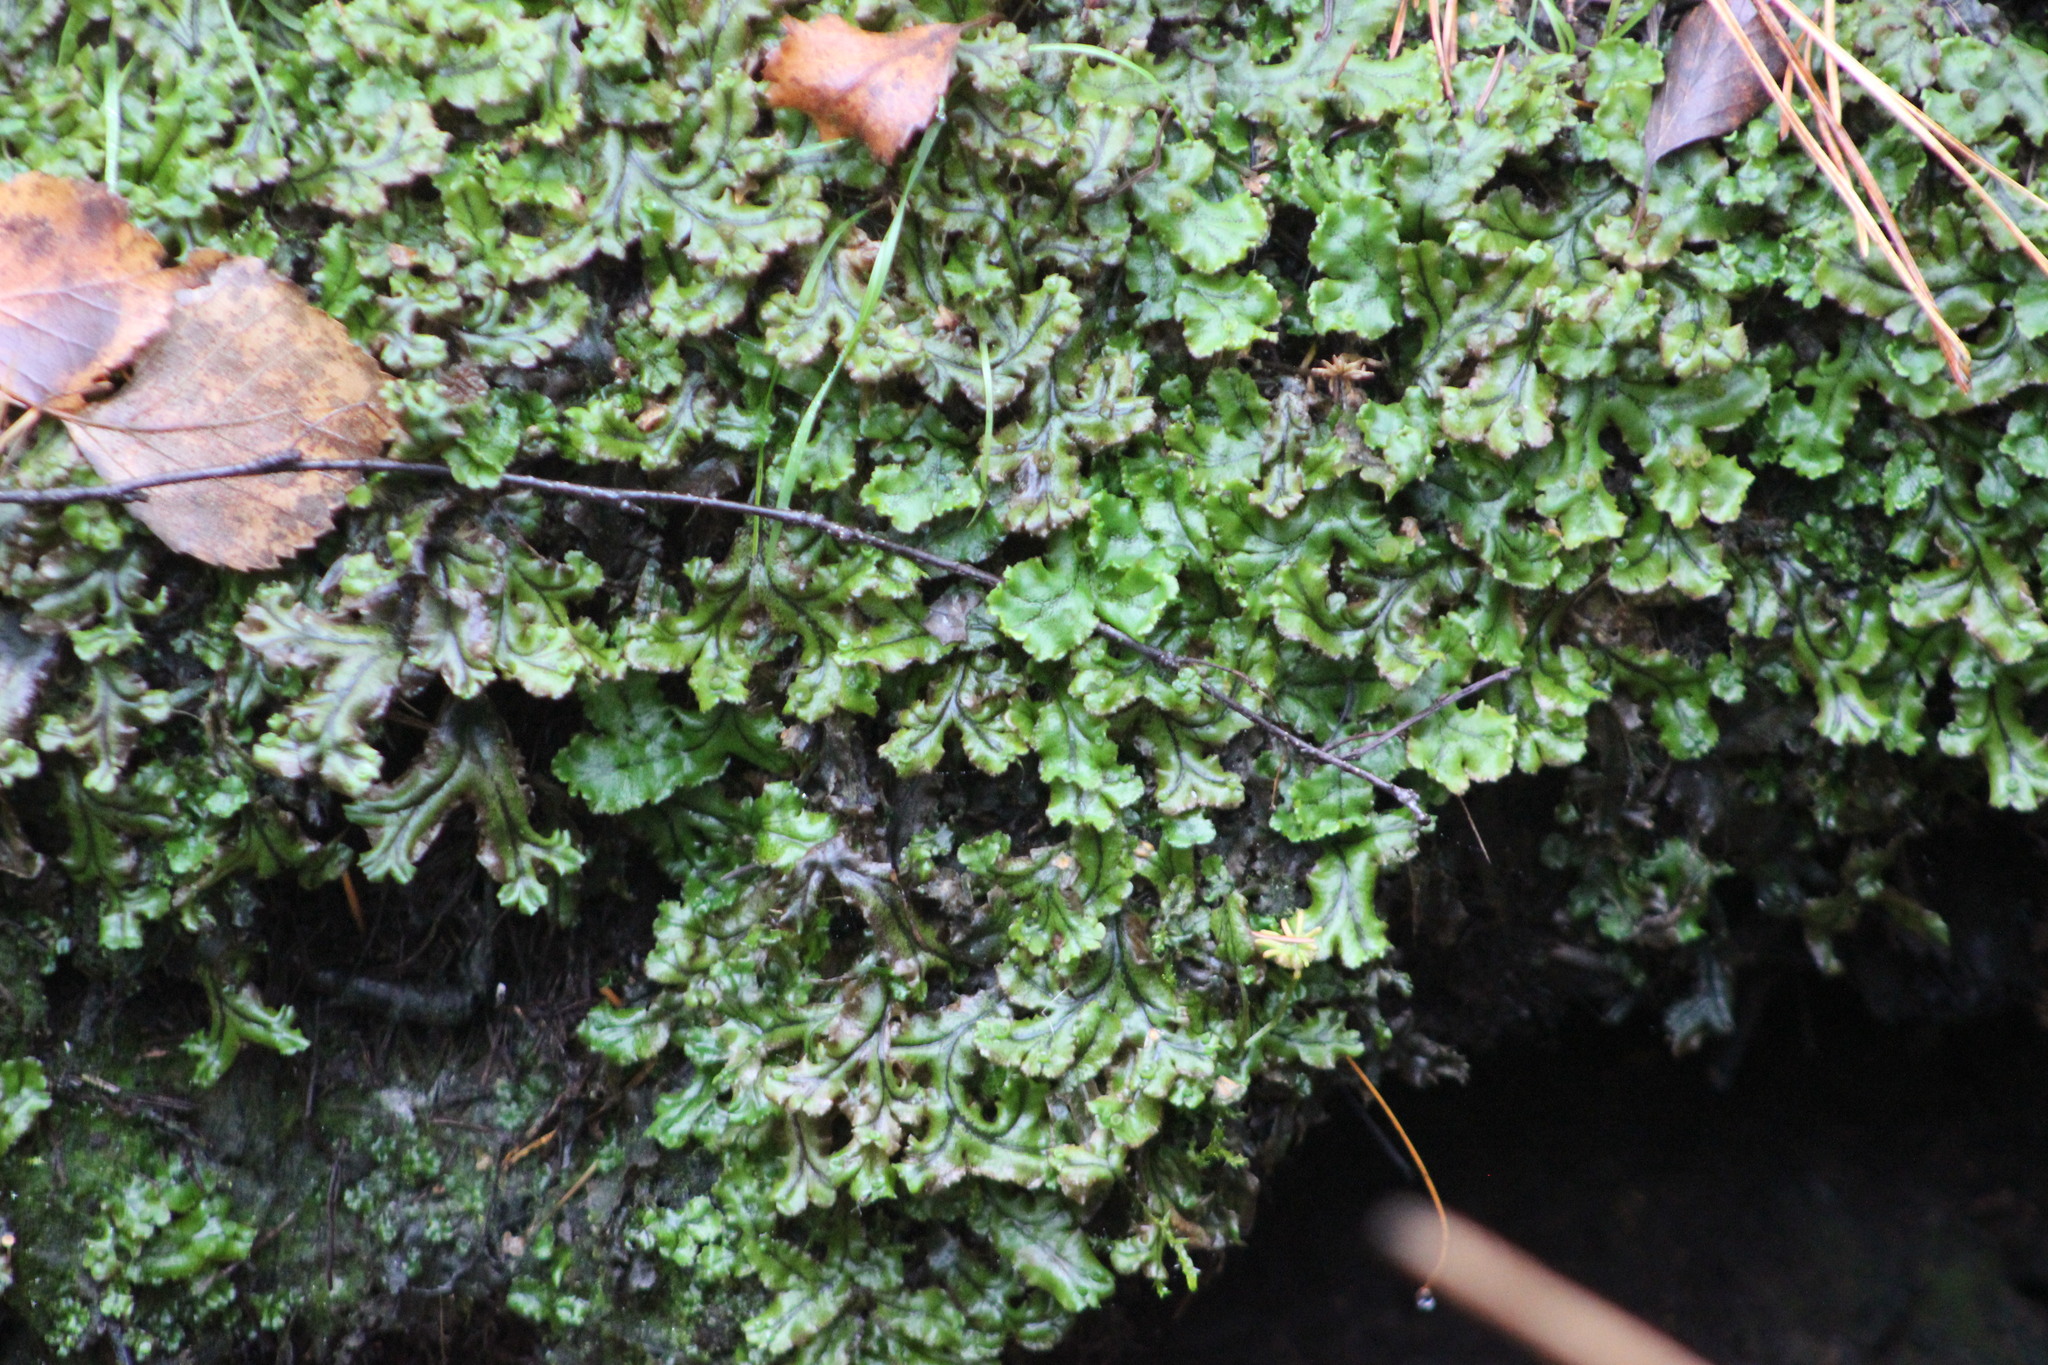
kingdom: Plantae
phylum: Marchantiophyta
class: Marchantiopsida
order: Marchantiales
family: Marchantiaceae
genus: Marchantia
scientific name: Marchantia polymorpha
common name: Common liverwort
